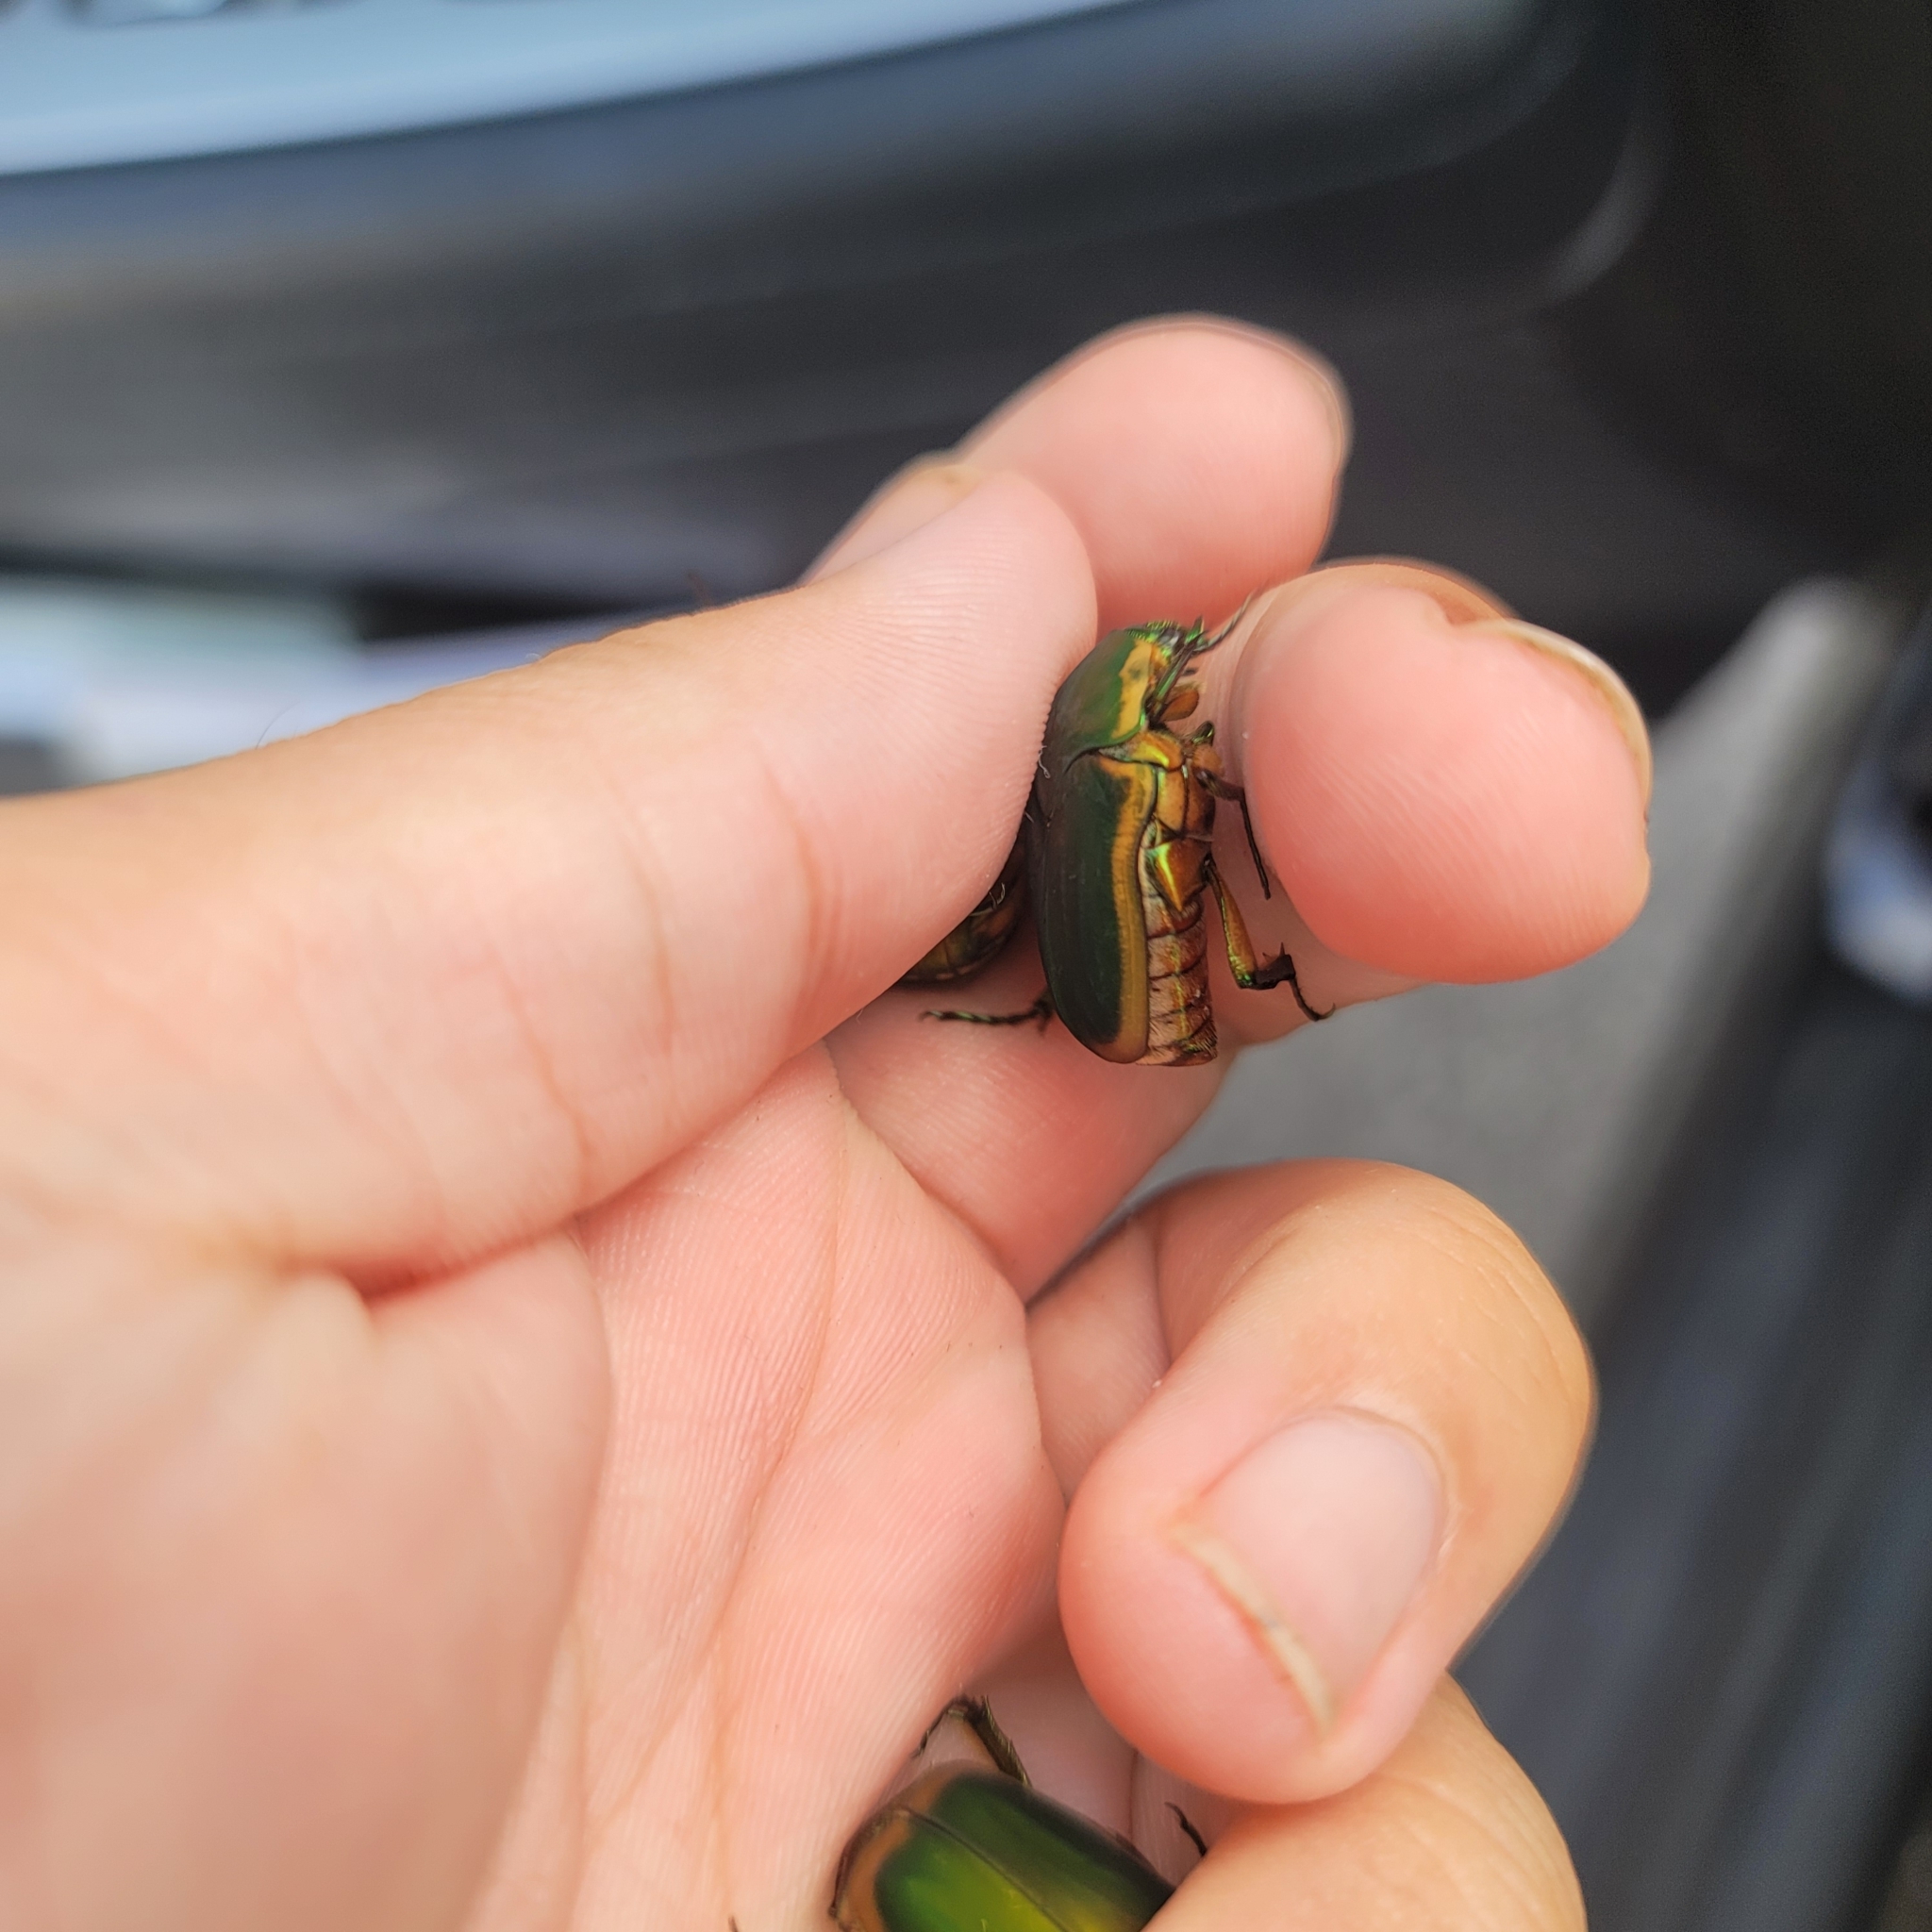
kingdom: Animalia
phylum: Arthropoda
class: Insecta
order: Coleoptera
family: Scarabaeidae
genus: Cotinis
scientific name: Cotinis nitida
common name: Common green june beetle
